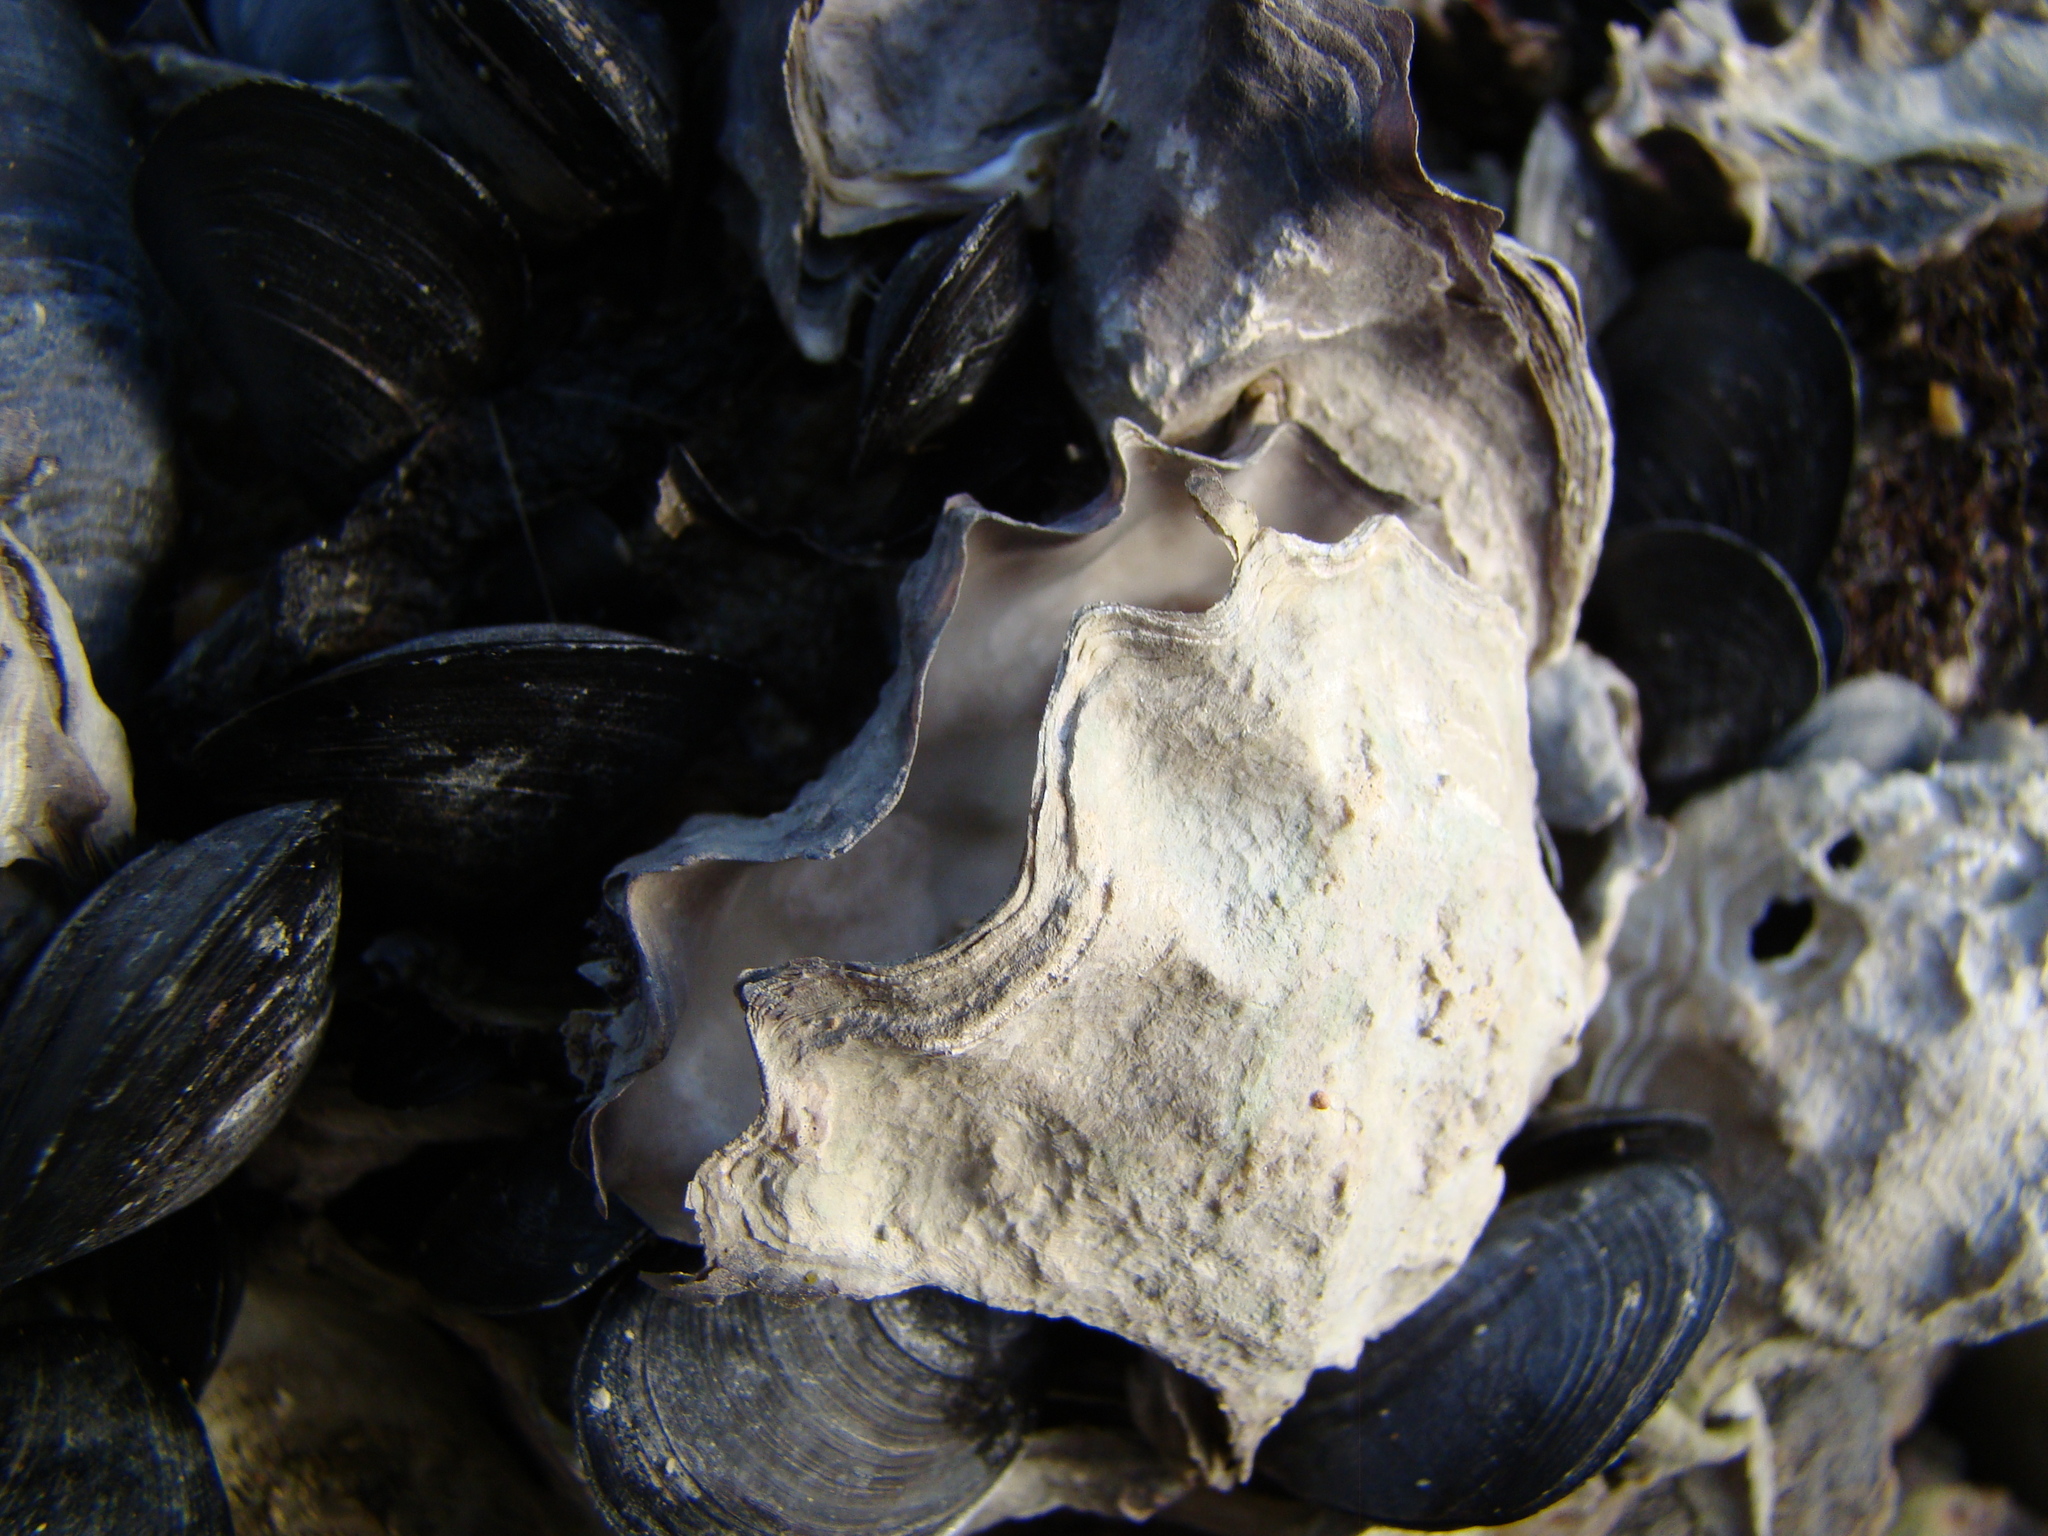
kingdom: Animalia
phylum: Mollusca
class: Bivalvia
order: Ostreida
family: Ostreidae
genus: Magallana
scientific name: Magallana gigas
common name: Pacific oyster
